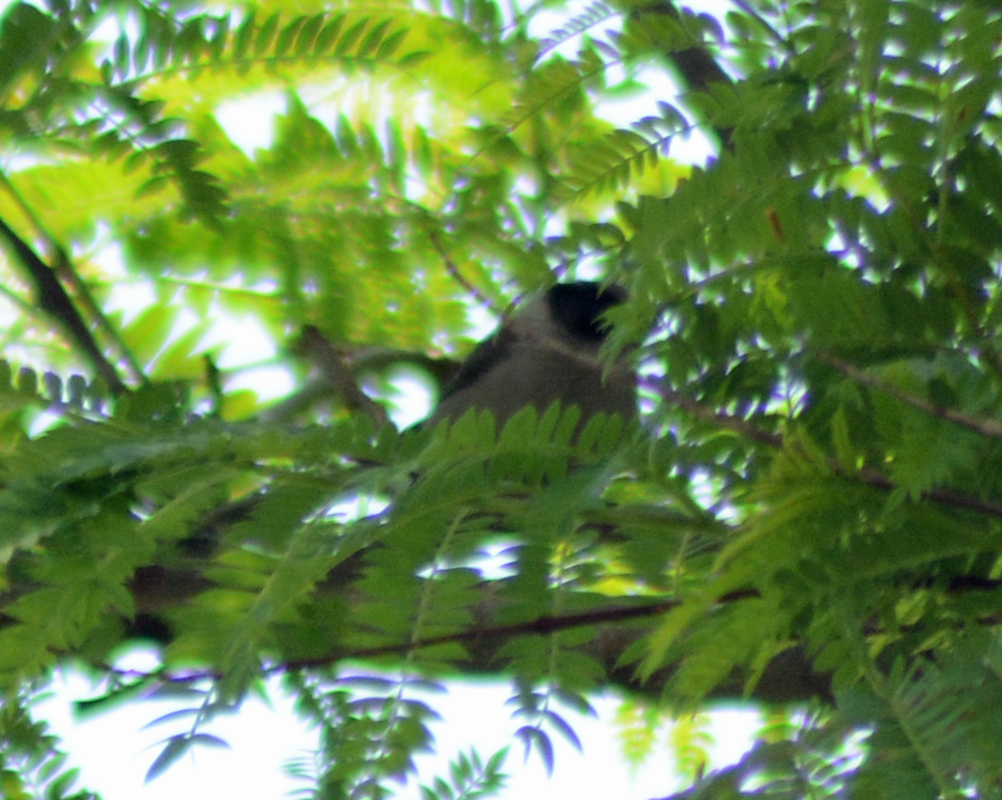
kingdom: Animalia
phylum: Chordata
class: Aves
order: Passeriformes
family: Aegithalidae
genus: Psaltriparus
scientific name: Psaltriparus minimus
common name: American bushtit
